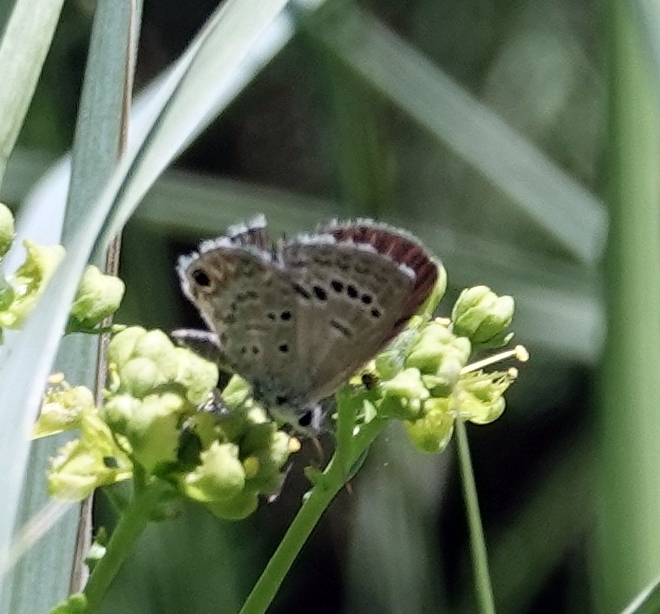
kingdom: Animalia
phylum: Arthropoda
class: Insecta
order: Lepidoptera
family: Lycaenidae
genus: Echinargus
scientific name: Echinargus isola
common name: Reakirt's blue
